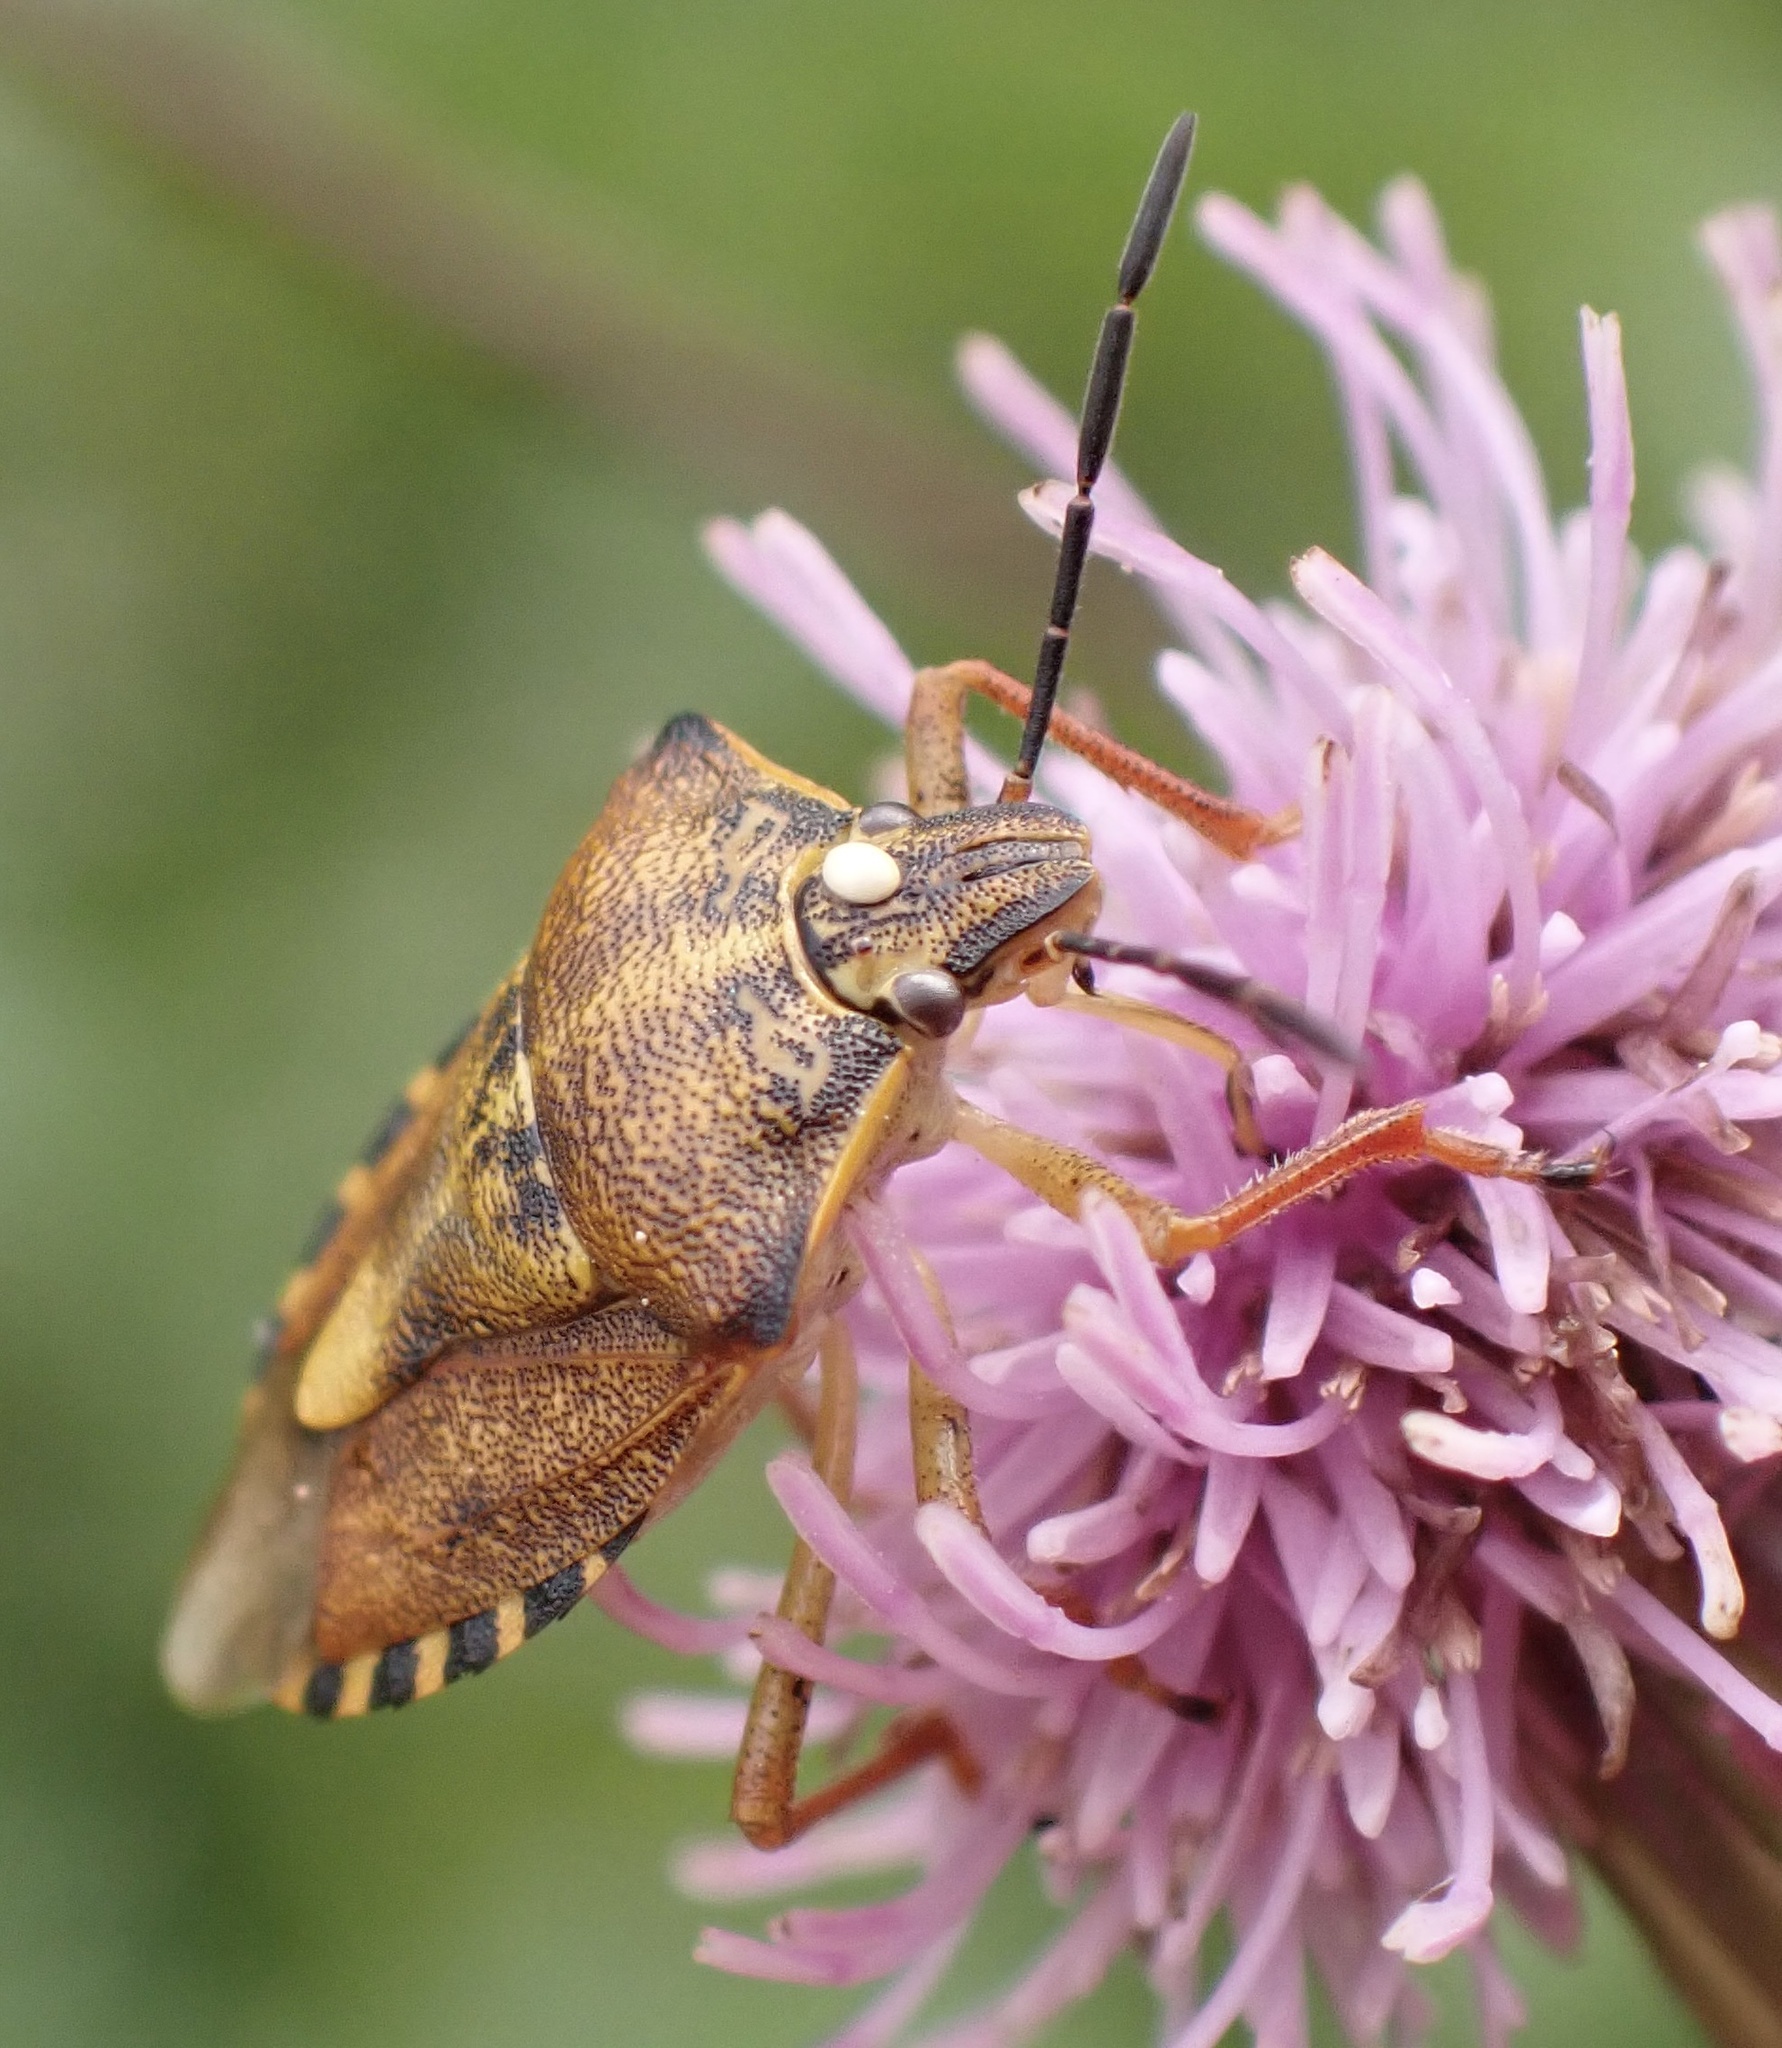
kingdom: Animalia
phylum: Arthropoda
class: Insecta
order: Hemiptera
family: Pentatomidae
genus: Carpocoris
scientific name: Carpocoris purpureipennis
